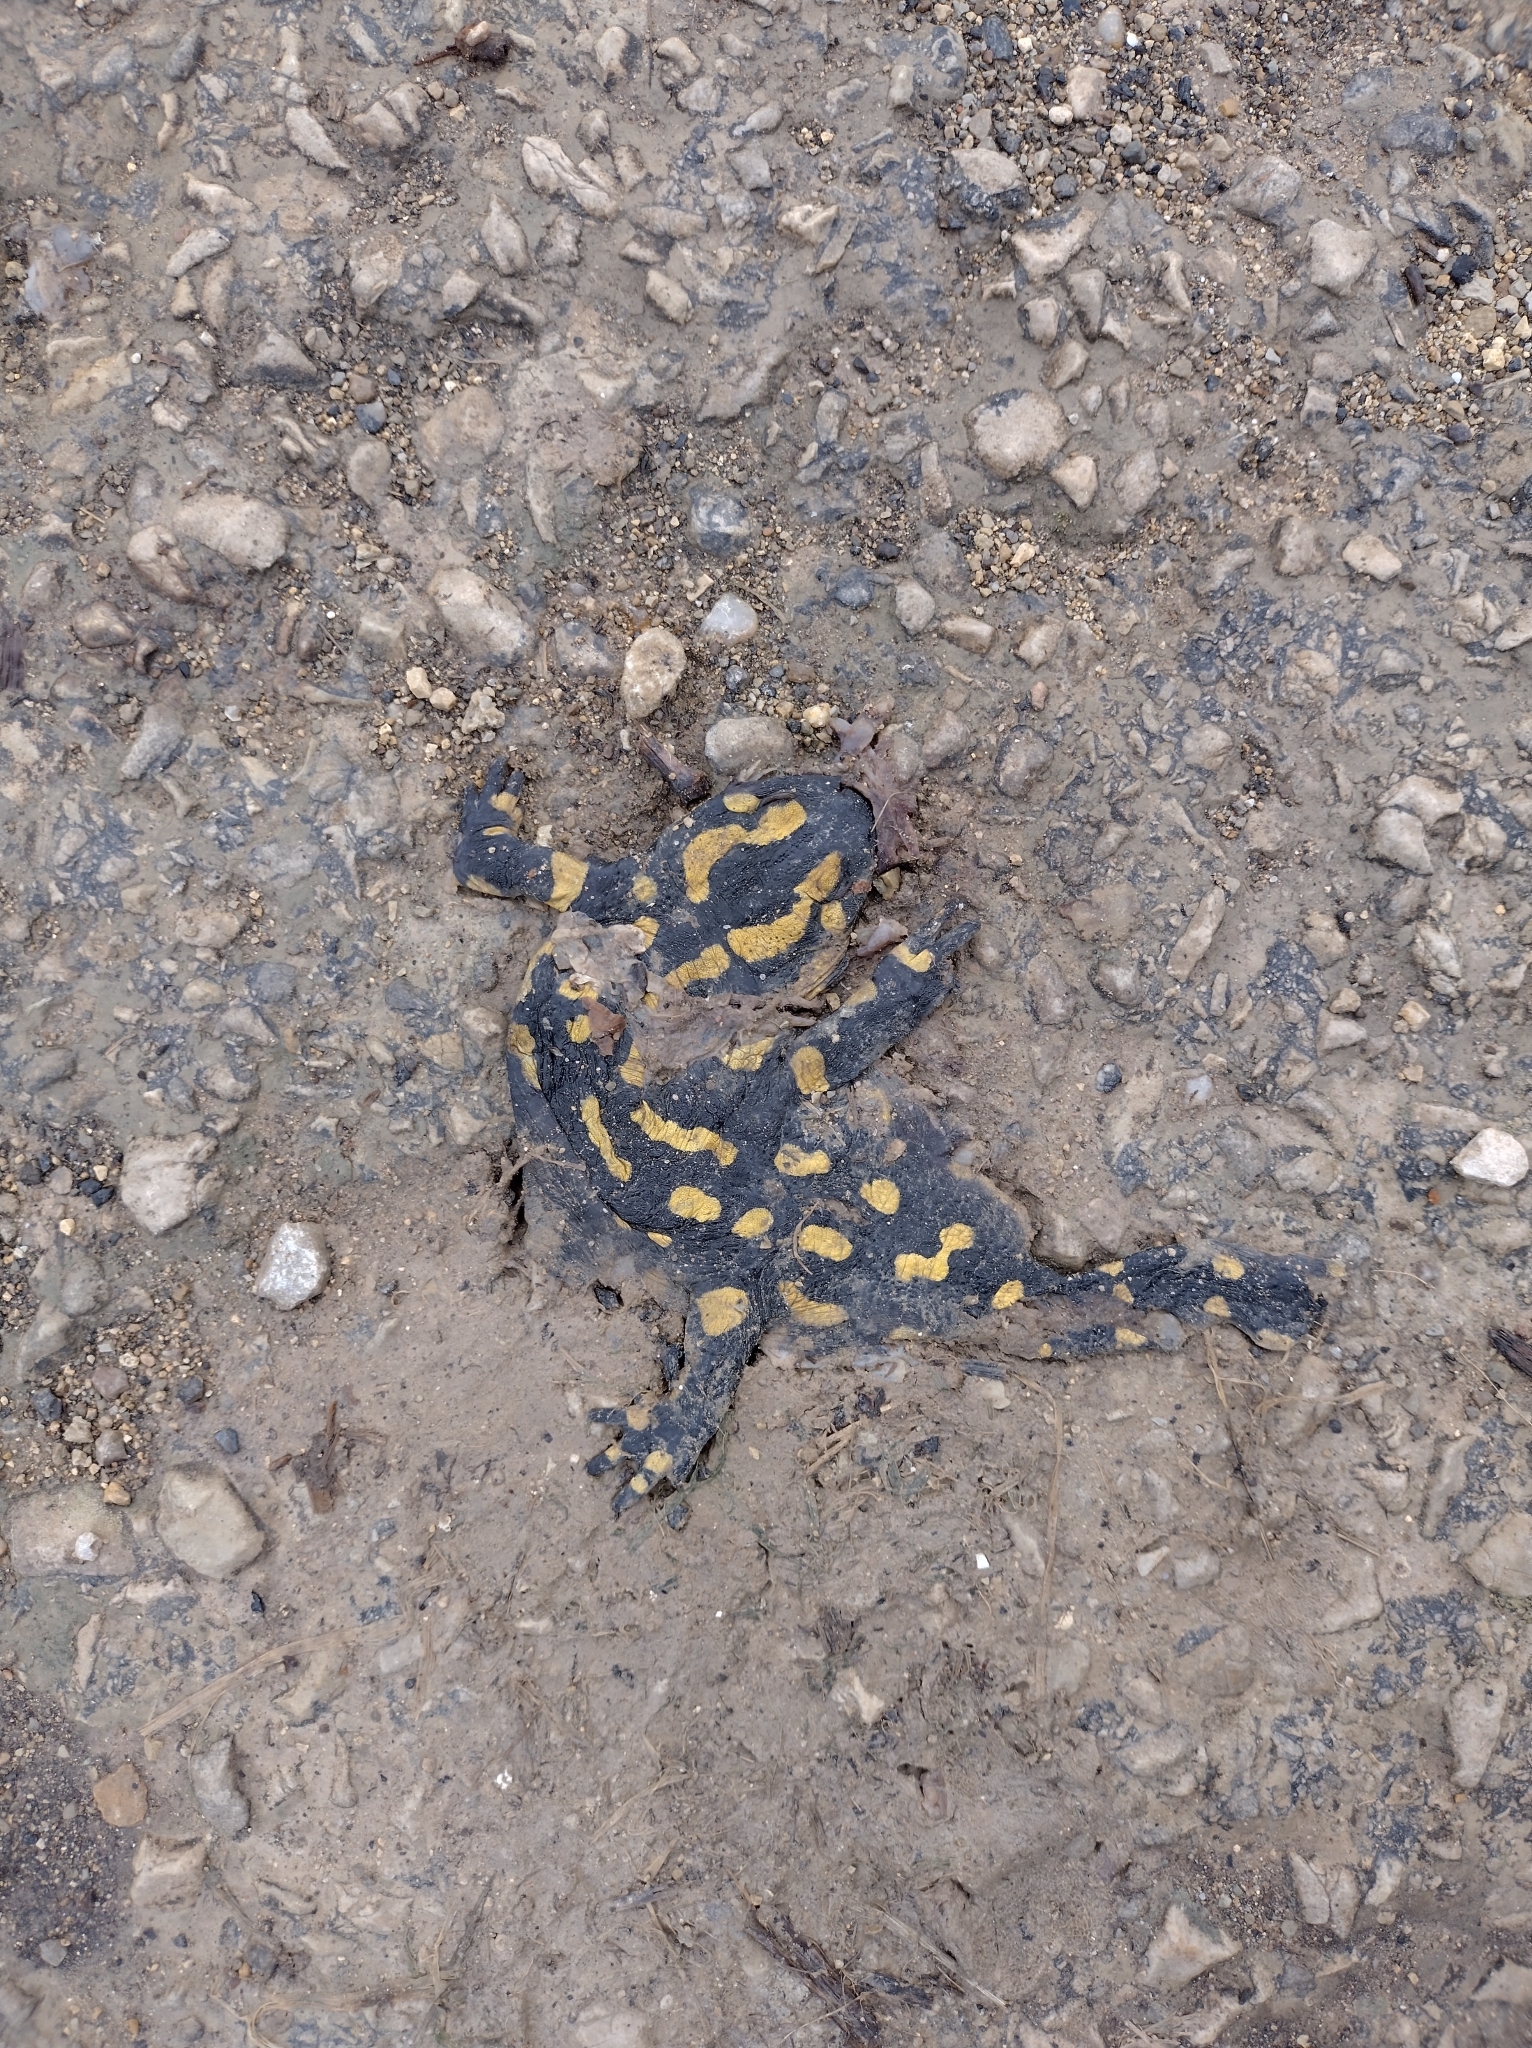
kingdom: Animalia
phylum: Chordata
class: Amphibia
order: Caudata
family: Salamandridae
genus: Salamandra
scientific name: Salamandra salamandra
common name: Fire salamander
